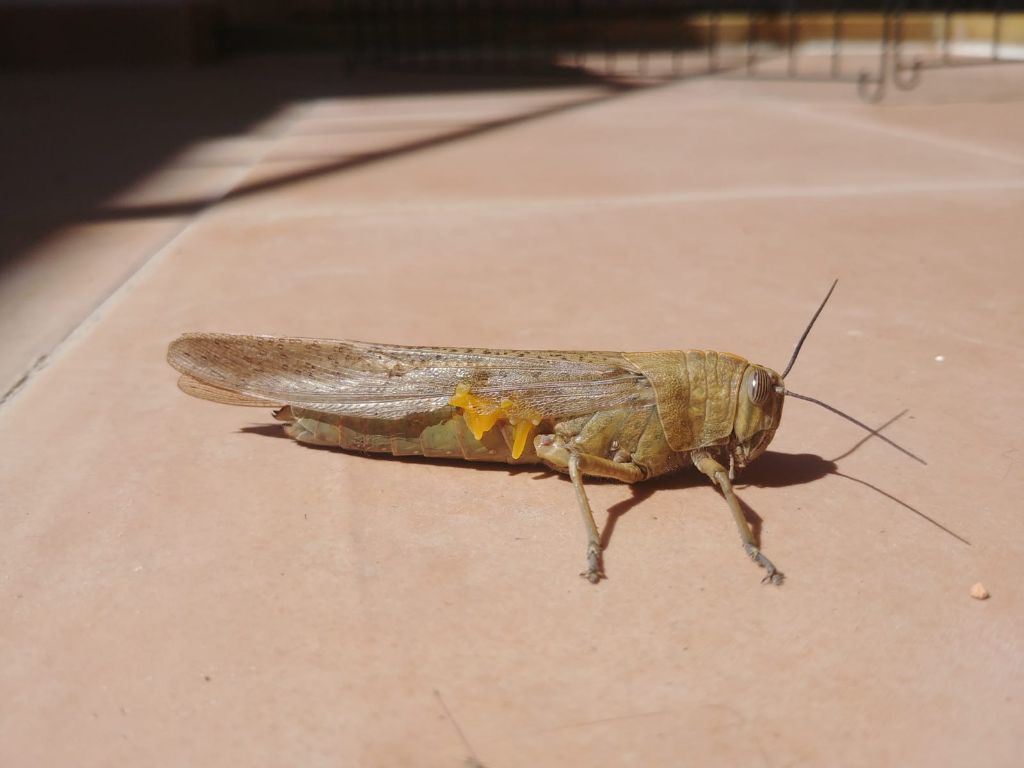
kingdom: Animalia
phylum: Arthropoda
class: Insecta
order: Orthoptera
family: Acrididae
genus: Anacridium
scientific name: Anacridium aegyptium
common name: Egyptian grasshopper
